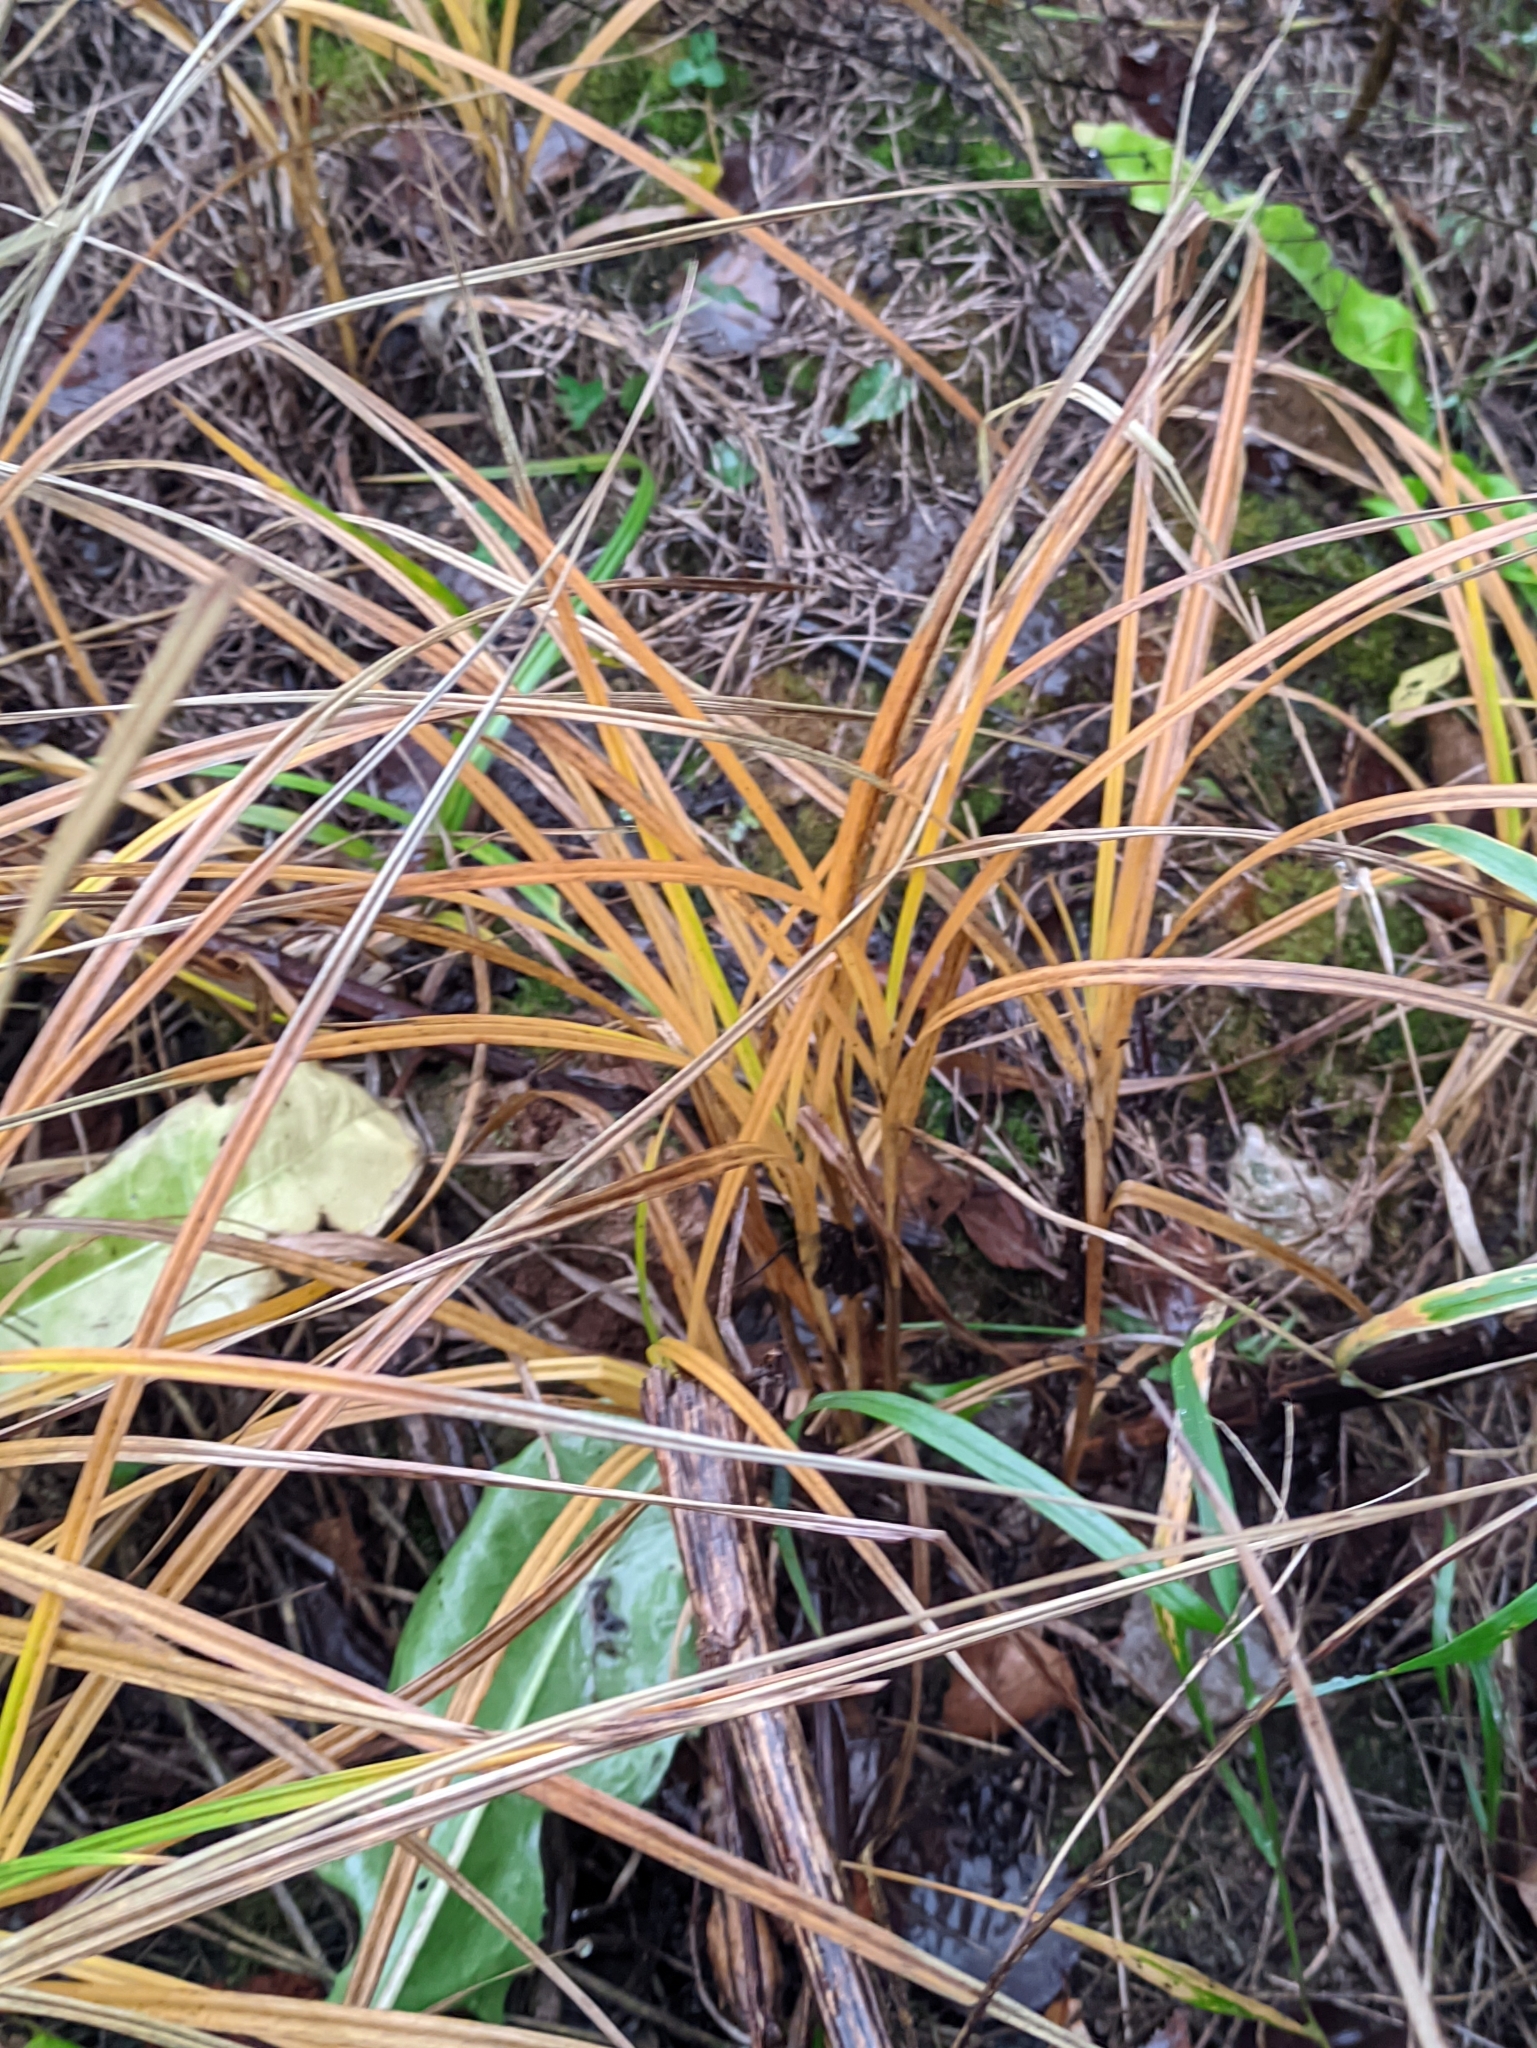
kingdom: Plantae
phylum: Tracheophyta
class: Liliopsida
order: Poales
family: Cyperaceae
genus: Carex
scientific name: Carex hirta
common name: Hairy sedge
